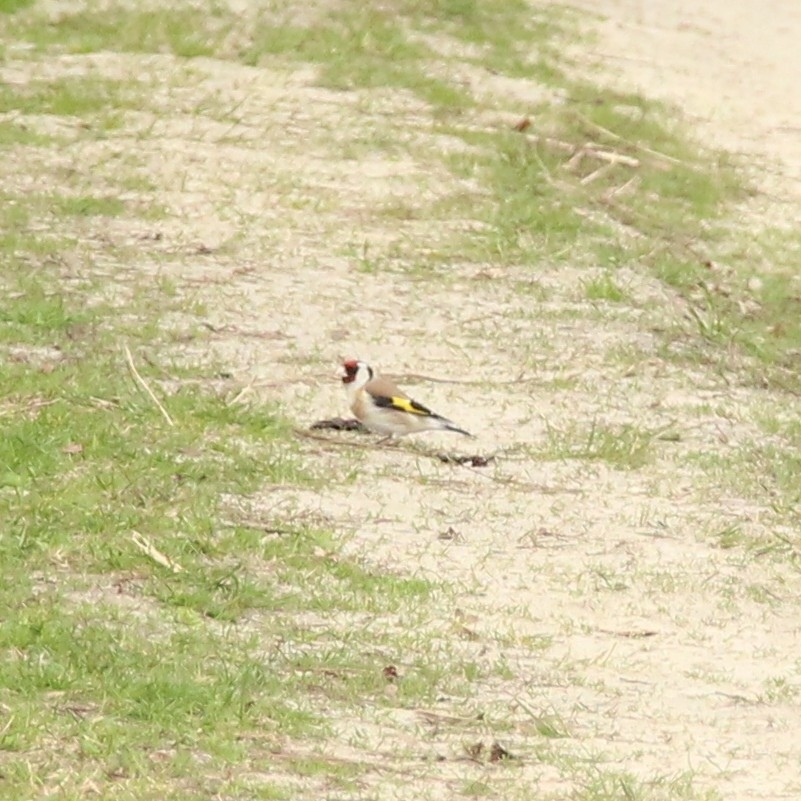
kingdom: Animalia
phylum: Chordata
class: Aves
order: Passeriformes
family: Fringillidae
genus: Carduelis
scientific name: Carduelis carduelis
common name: European goldfinch
